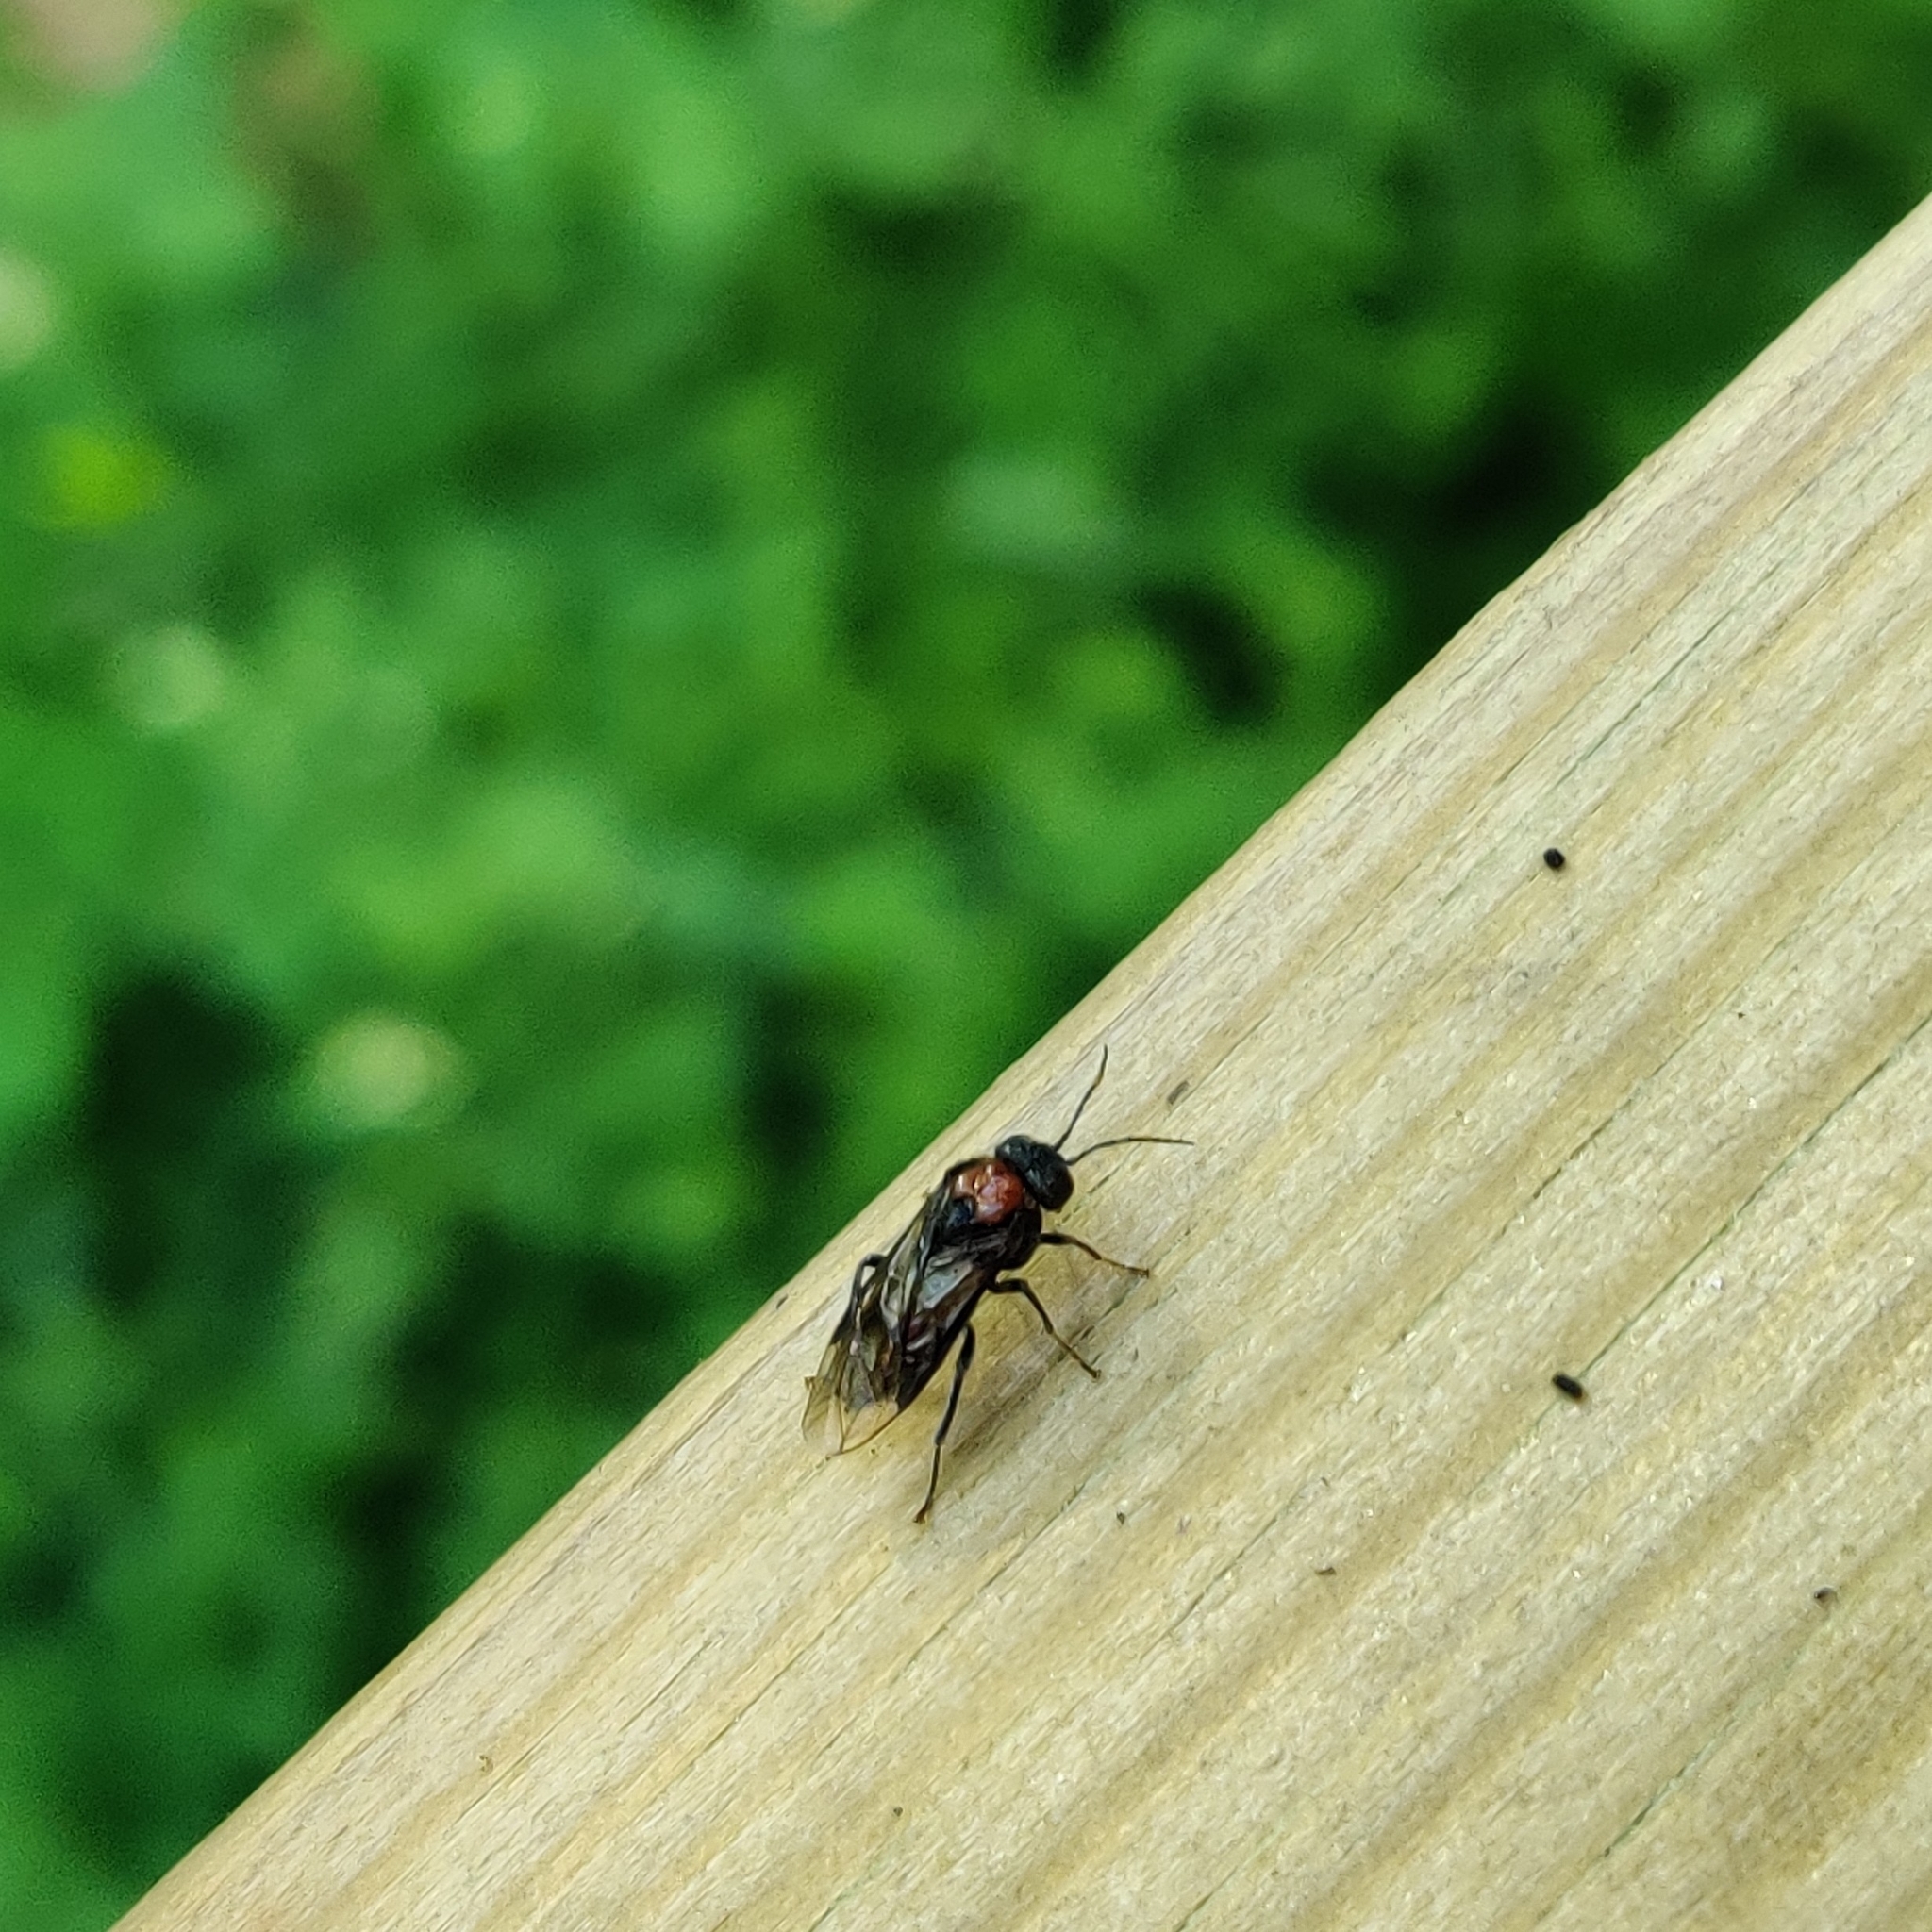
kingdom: Animalia
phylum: Arthropoda
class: Insecta
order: Hymenoptera
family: Tenthredinidae
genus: Eriocampa
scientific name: Eriocampa ovata
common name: Alder wooly sawfly
